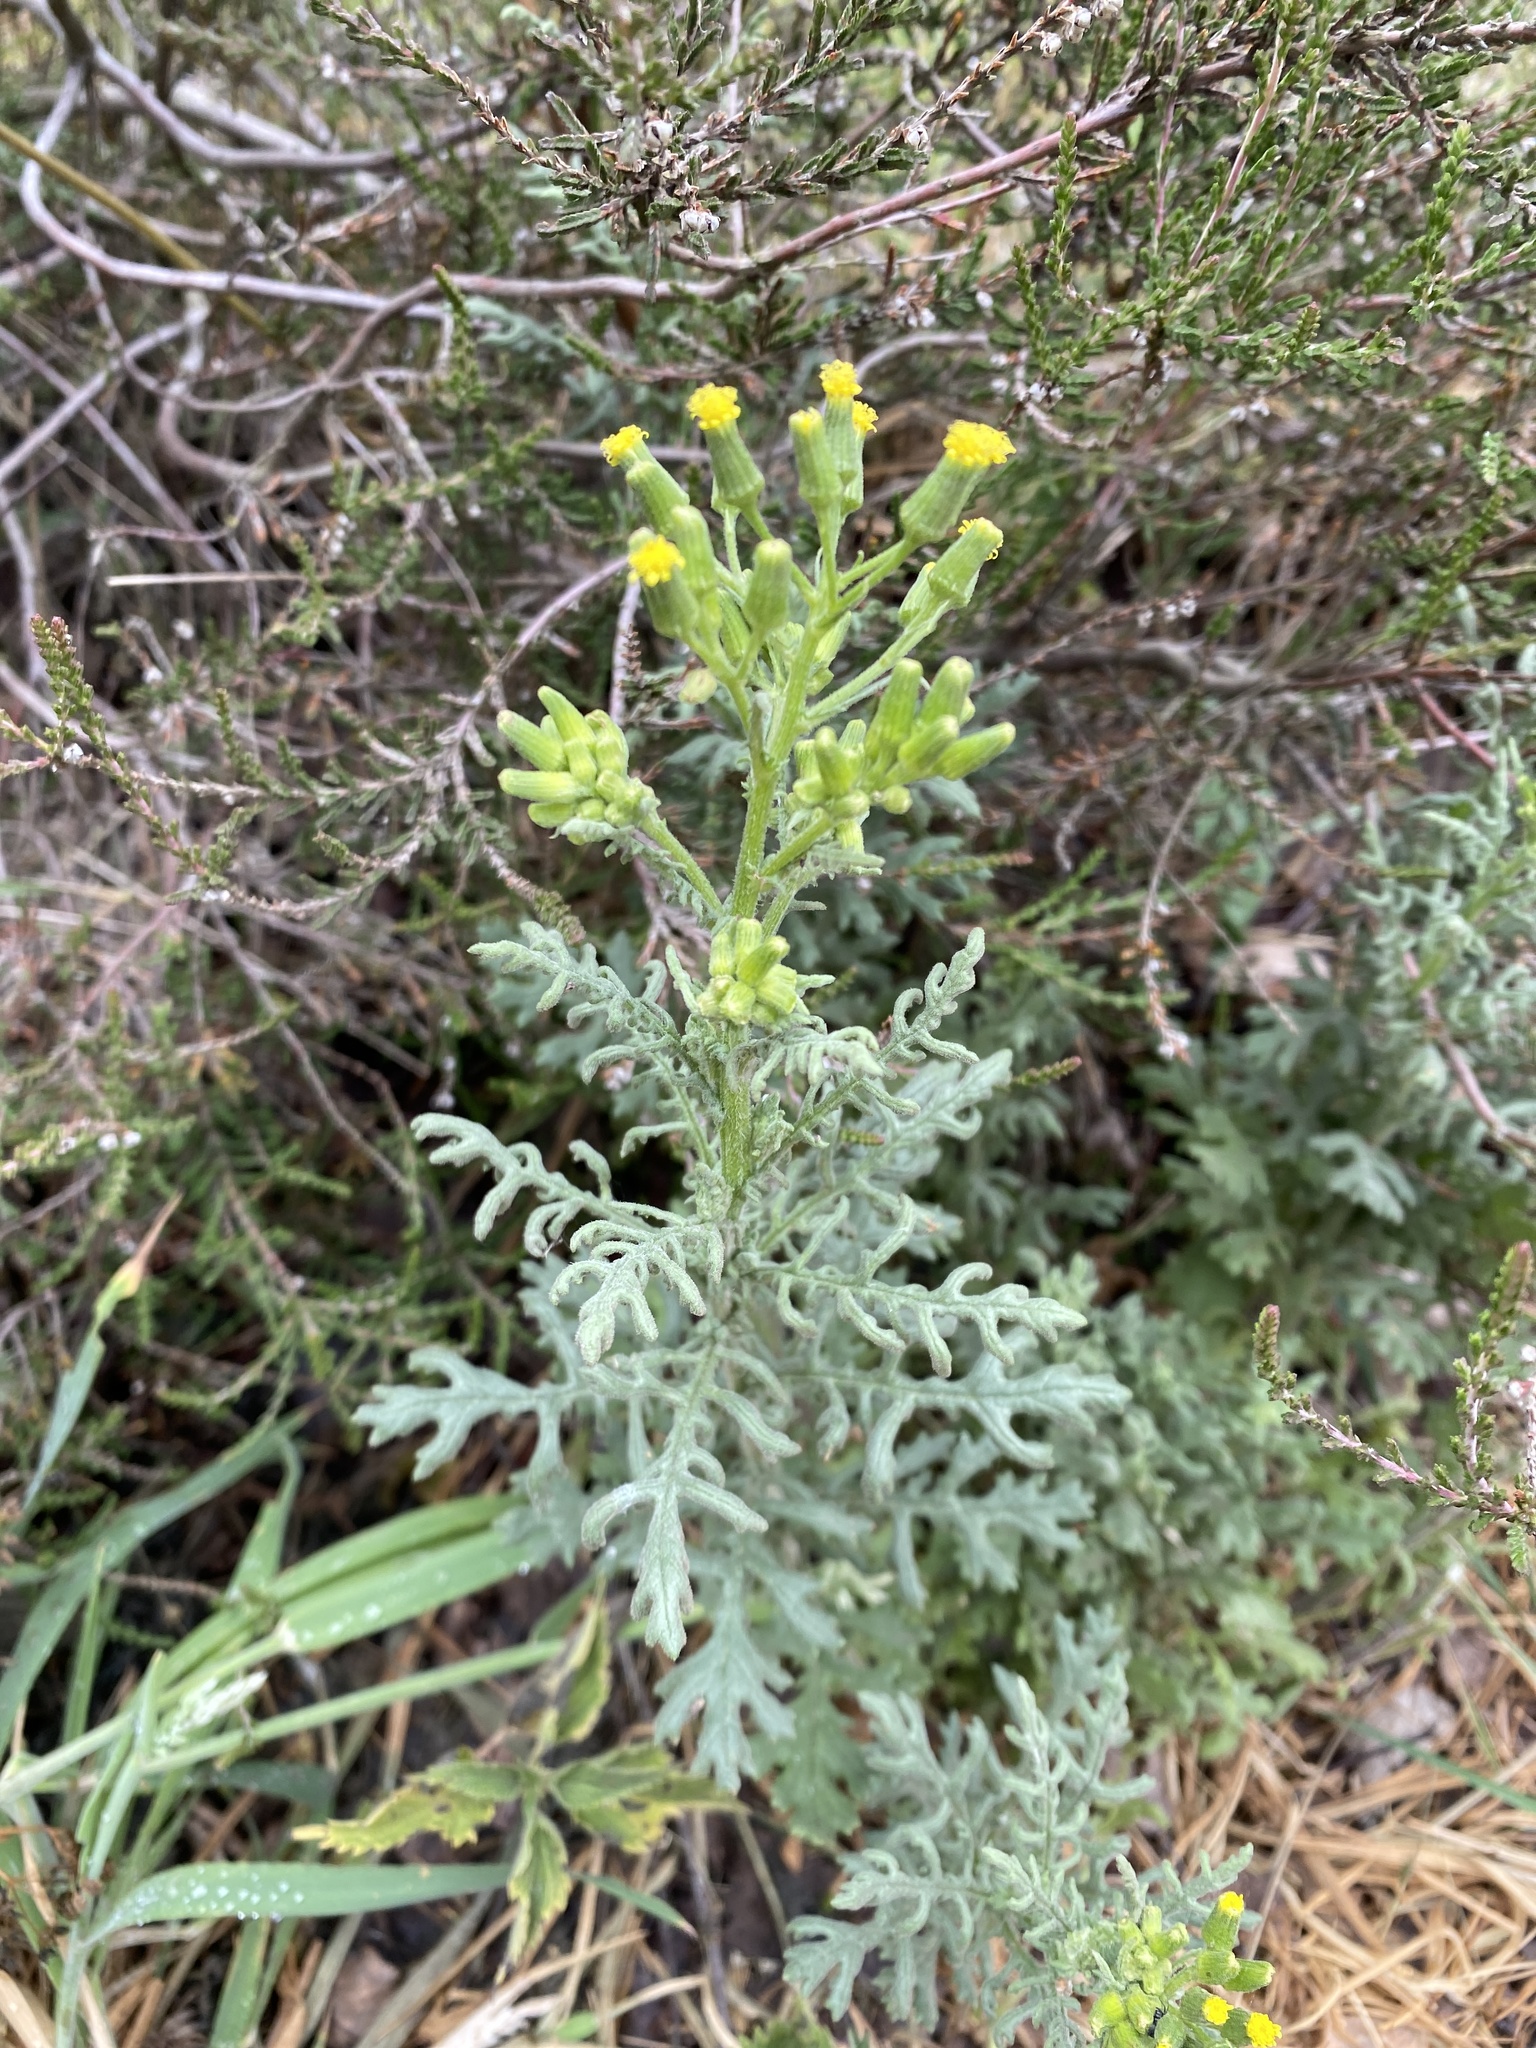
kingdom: Plantae
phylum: Tracheophyta
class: Magnoliopsida
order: Asterales
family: Asteraceae
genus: Senecio
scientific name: Senecio sylvaticus
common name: Woodland ragwort
